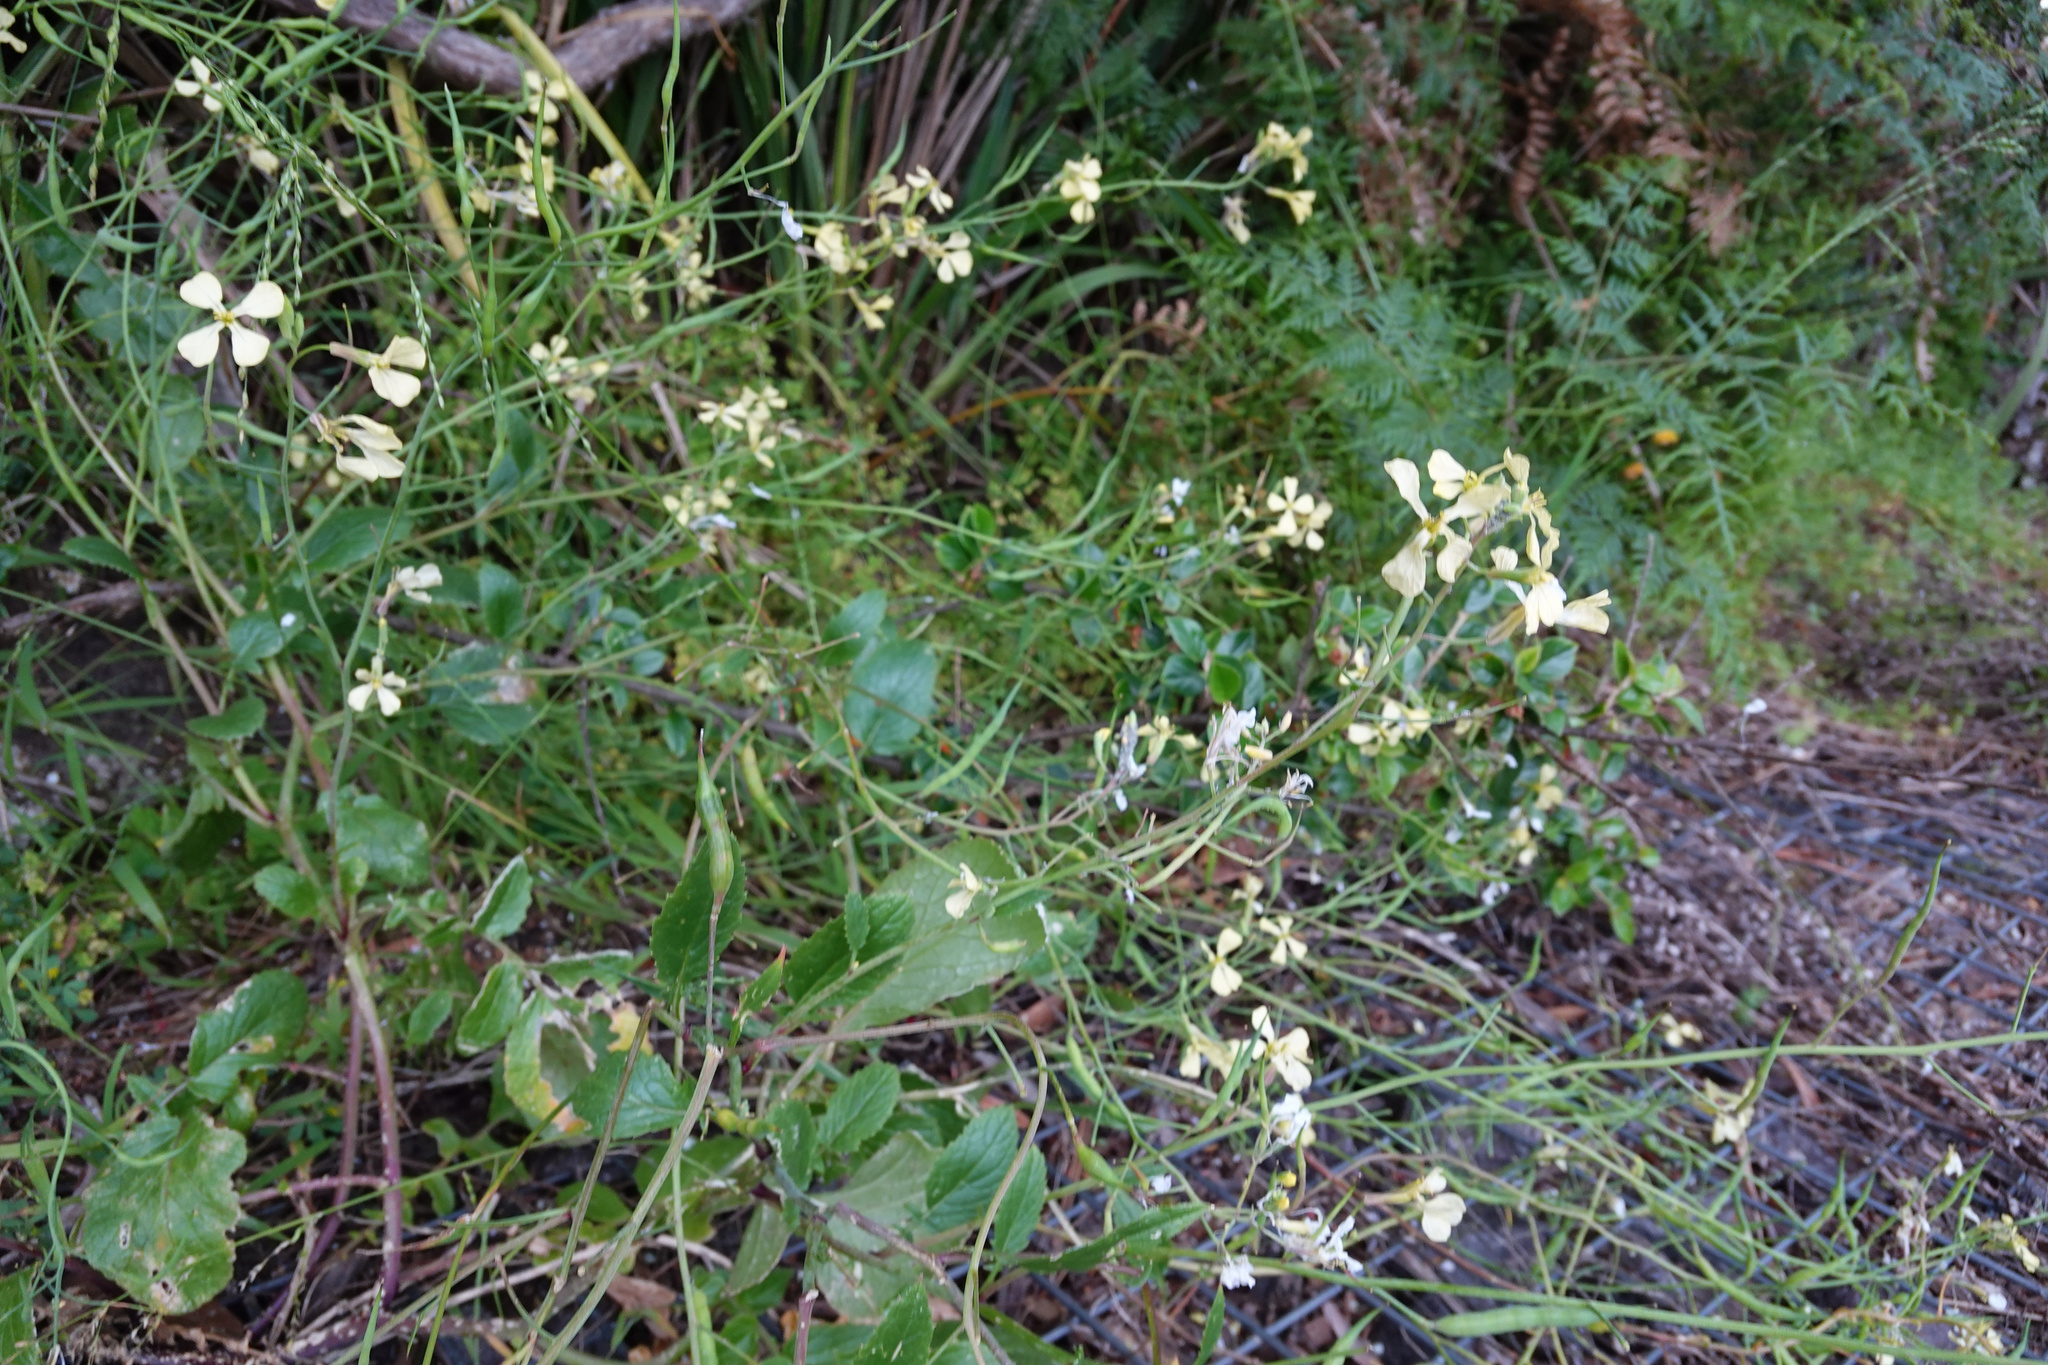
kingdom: Plantae
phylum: Tracheophyta
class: Magnoliopsida
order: Brassicales
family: Brassicaceae
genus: Raphanus
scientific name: Raphanus raphanistrum
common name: Wild radish
